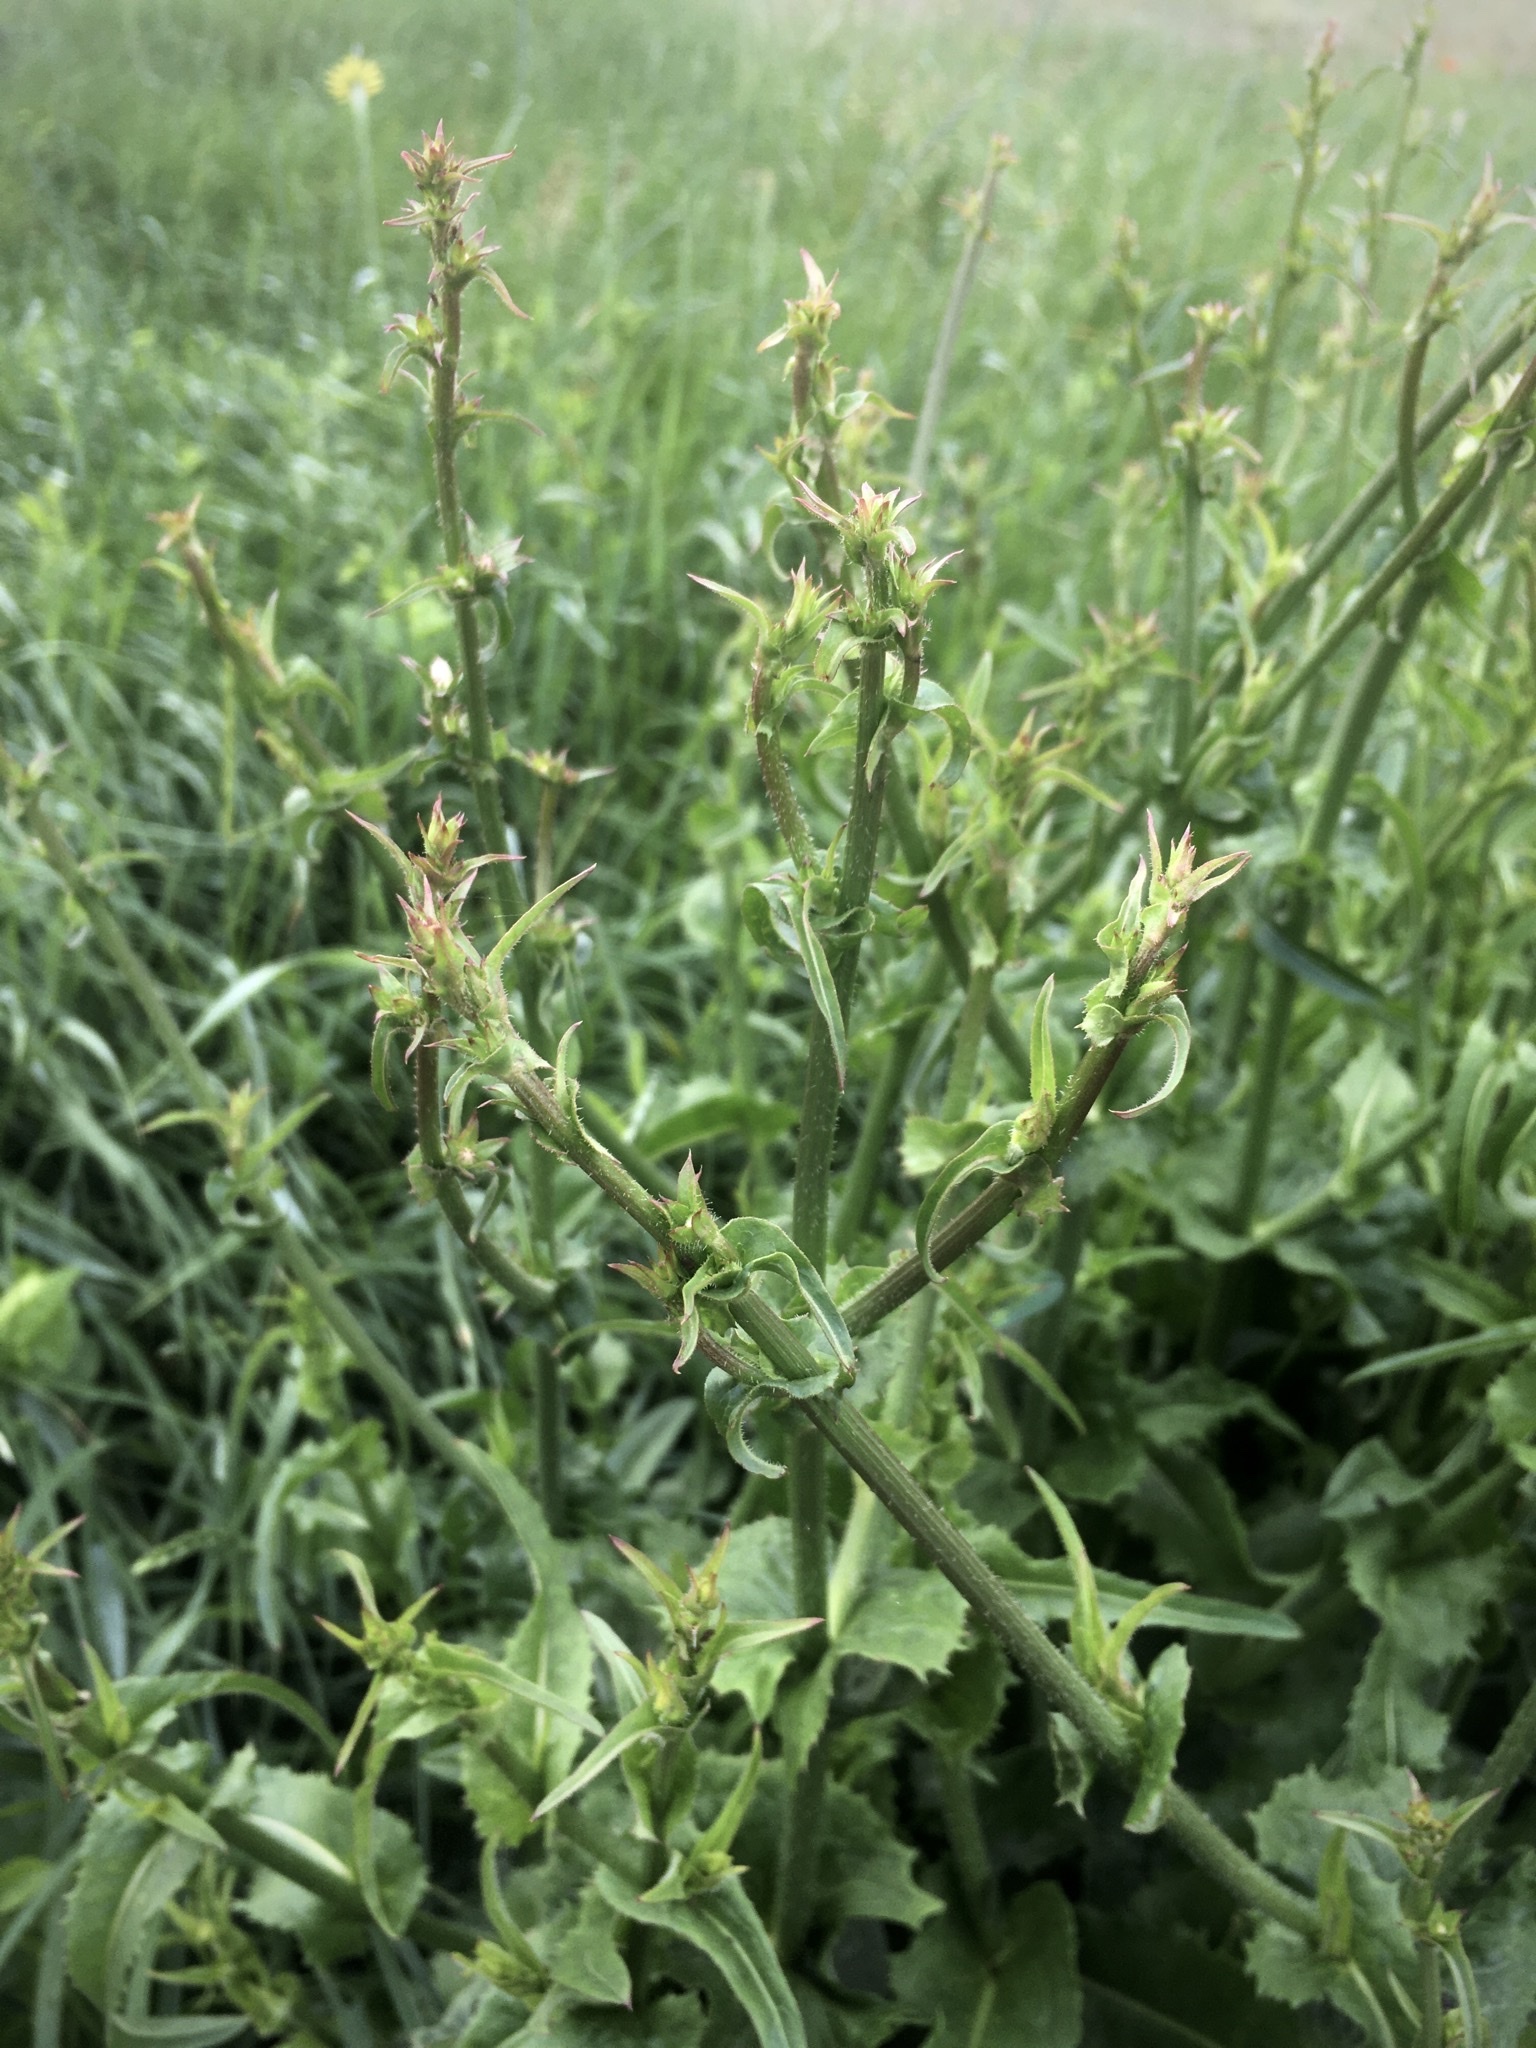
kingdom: Plantae
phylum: Tracheophyta
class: Magnoliopsida
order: Asterales
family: Asteraceae
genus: Cichorium
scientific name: Cichorium intybus
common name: Chicory
